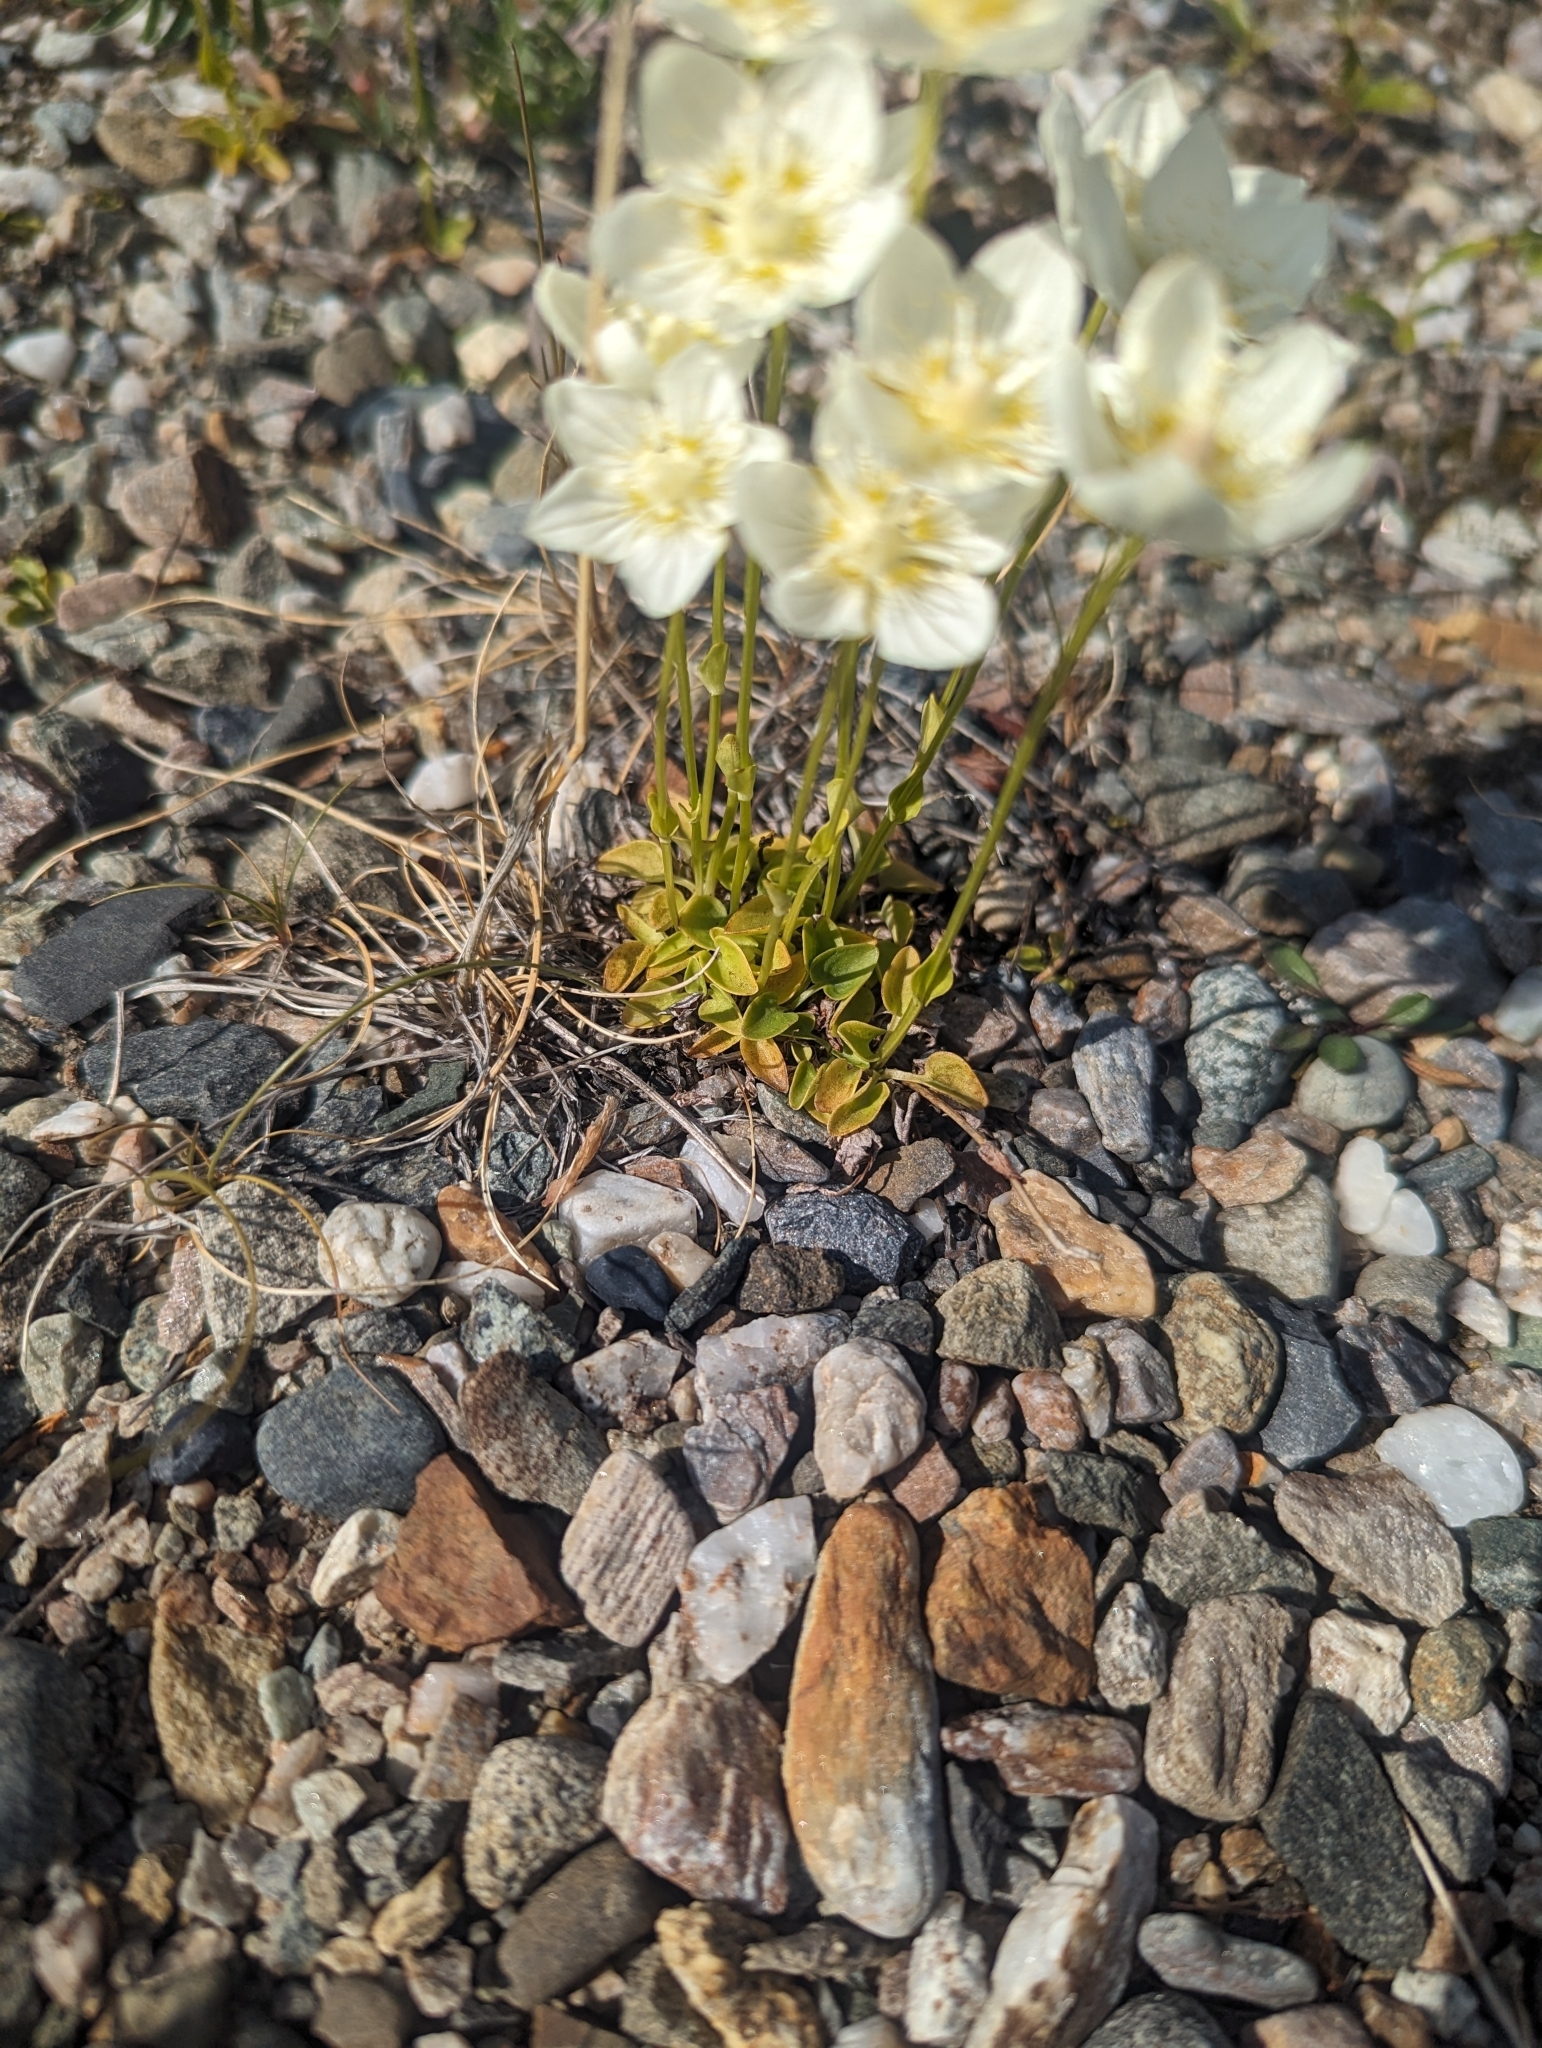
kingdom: Plantae
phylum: Tracheophyta
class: Magnoliopsida
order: Celastrales
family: Parnassiaceae
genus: Parnassia
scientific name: Parnassia palustris
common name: Grass-of-parnassus
